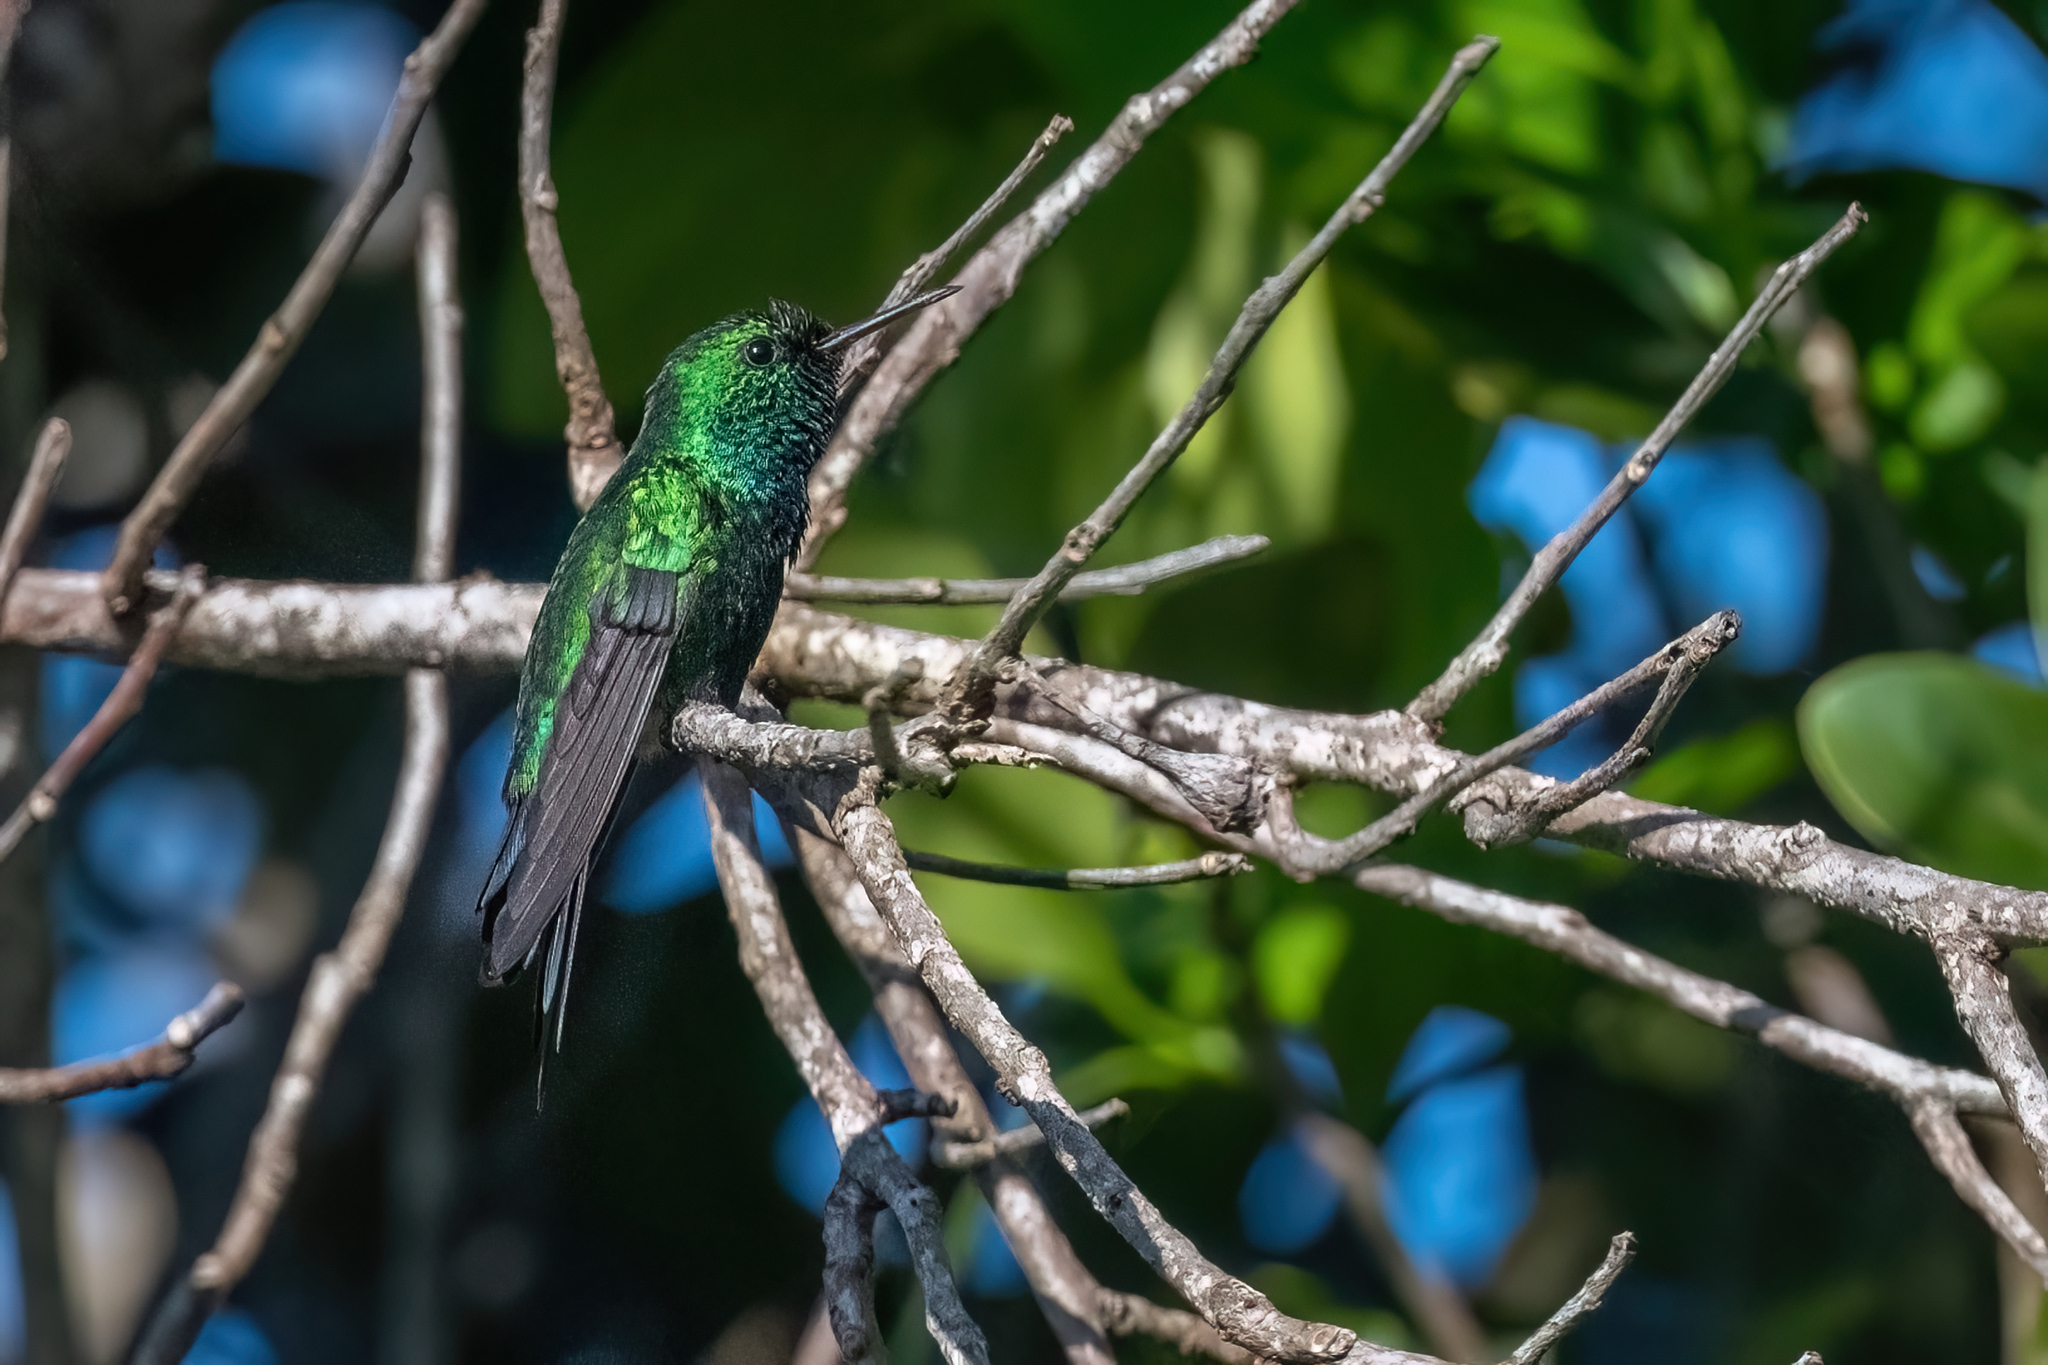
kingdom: Animalia
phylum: Chordata
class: Aves
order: Apodiformes
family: Trochilidae
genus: Riccordia
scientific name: Riccordia maugaeus
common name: Puerto rican emerald
